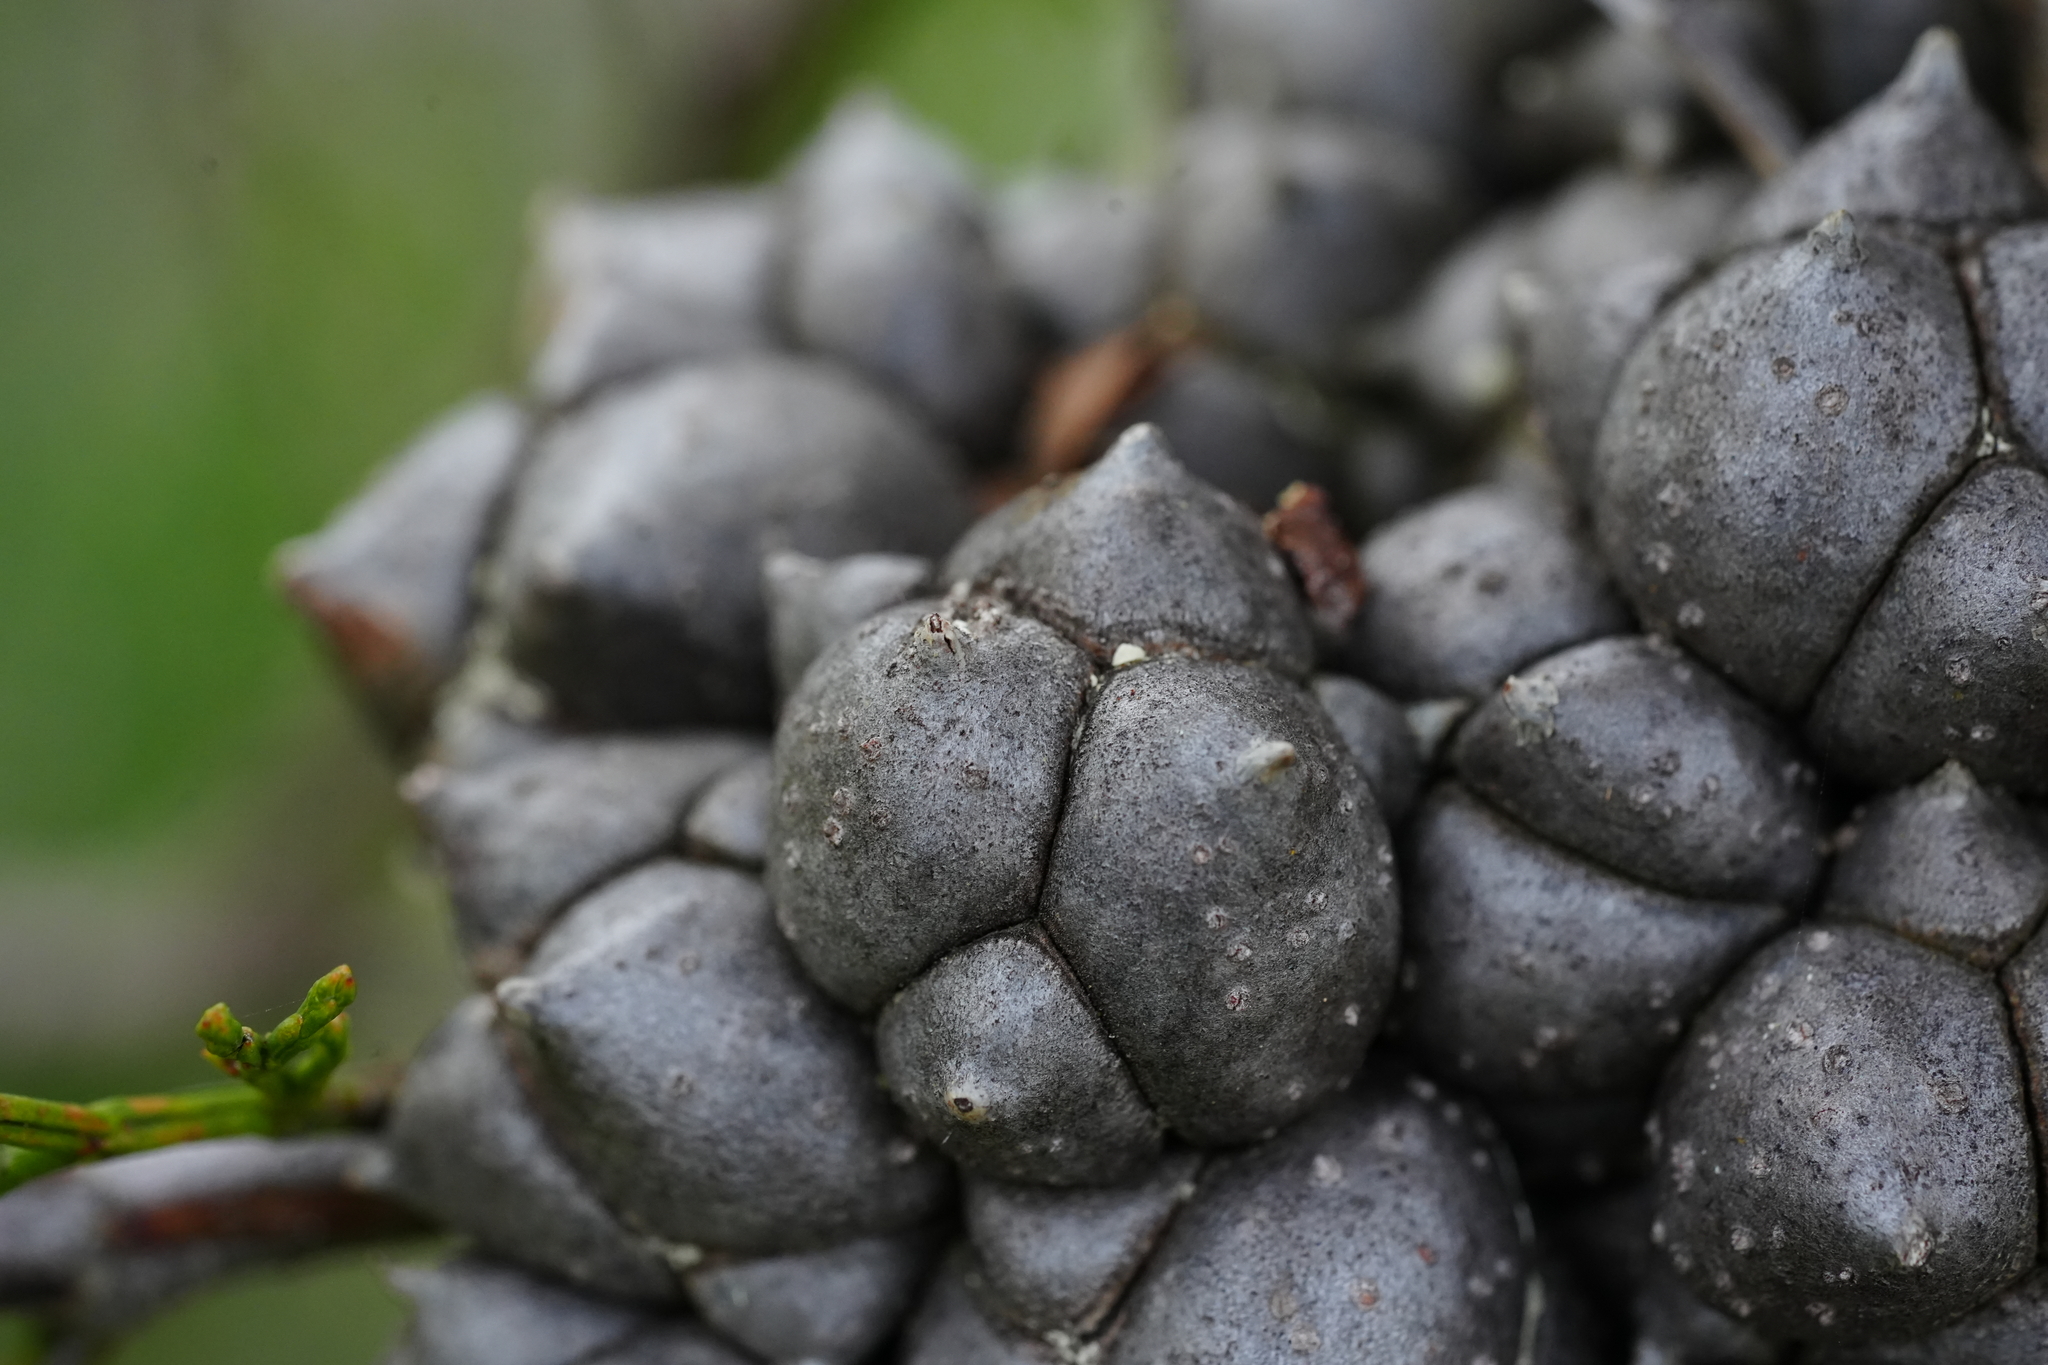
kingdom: Plantae
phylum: Tracheophyta
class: Pinopsida
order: Pinales
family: Cupressaceae
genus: Callitris
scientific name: Callitris rhomboidea
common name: Illawara mountain pine
